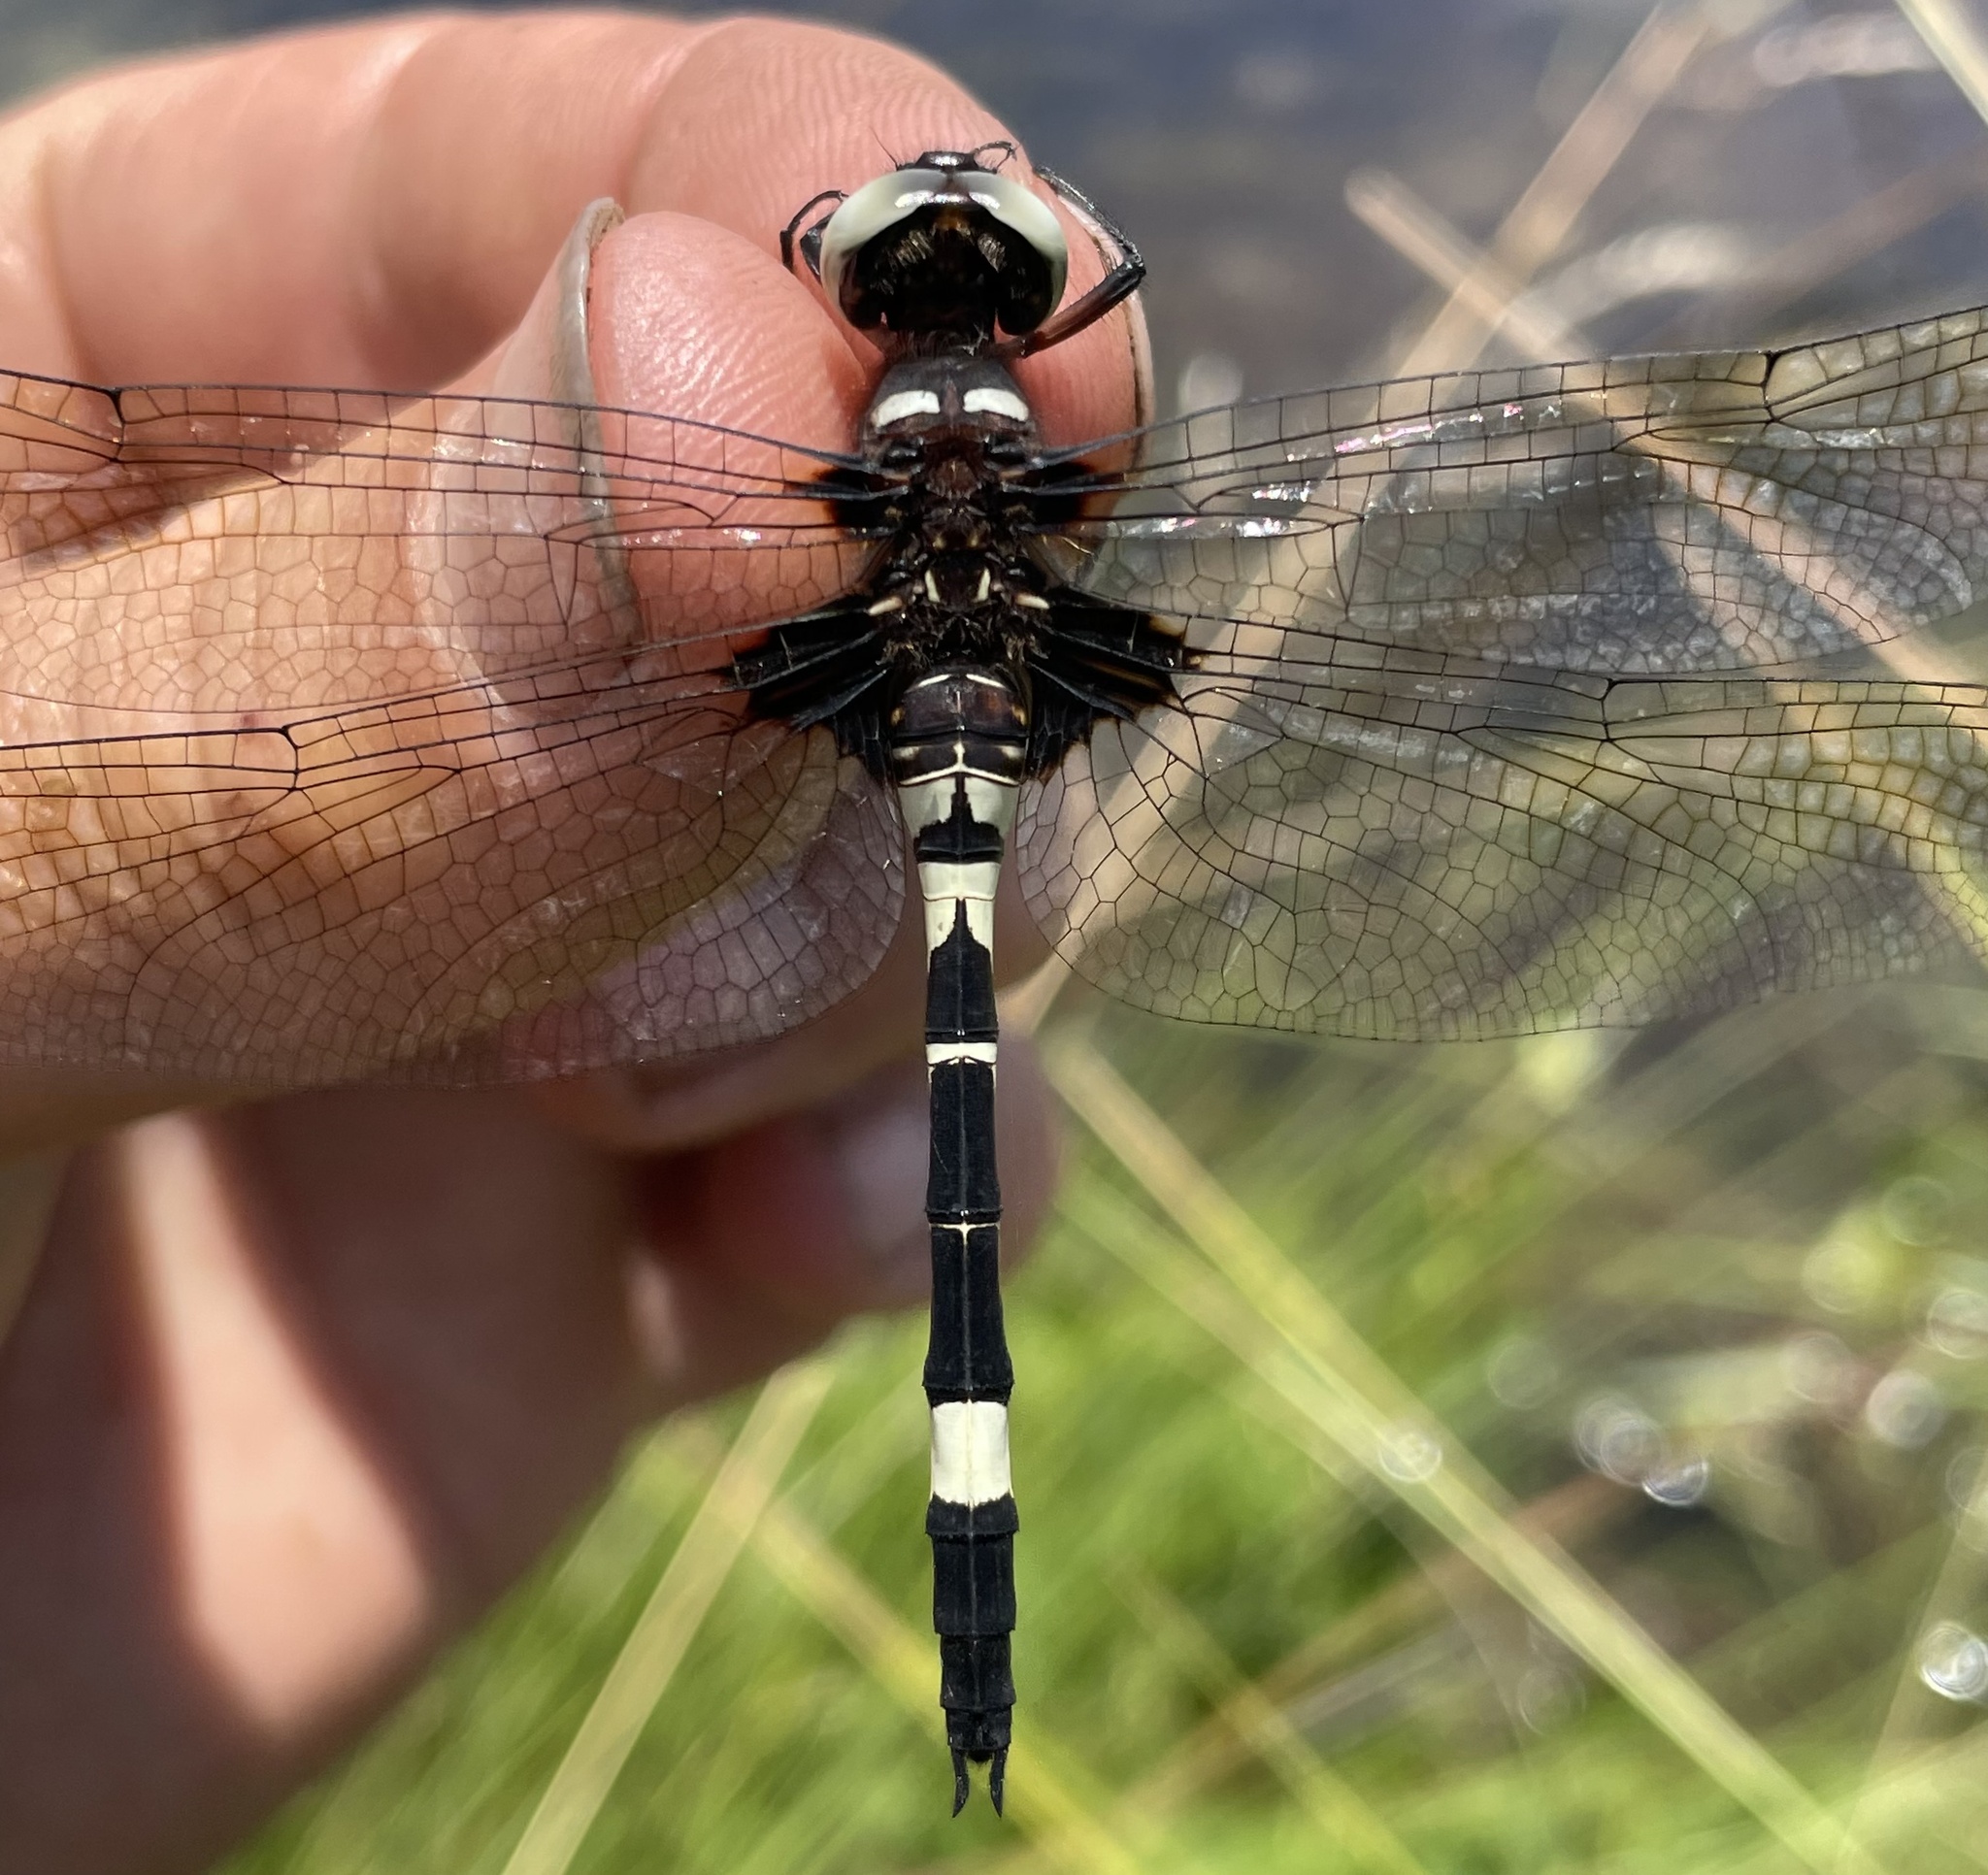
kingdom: Animalia
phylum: Arthropoda
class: Insecta
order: Odonata
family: Libellulidae
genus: Zygonyx
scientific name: Zygonyx atritibiae
